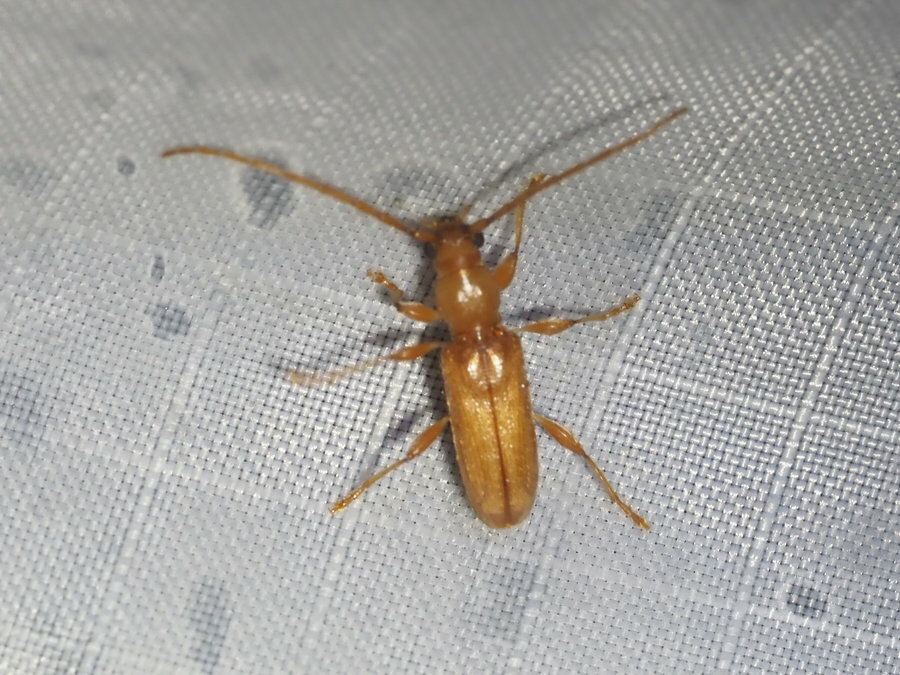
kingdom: Animalia
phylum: Arthropoda
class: Insecta
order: Coleoptera
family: Cerambycidae
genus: Curtomerus
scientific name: Curtomerus flavus
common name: Curtomerus long-horned beetle
